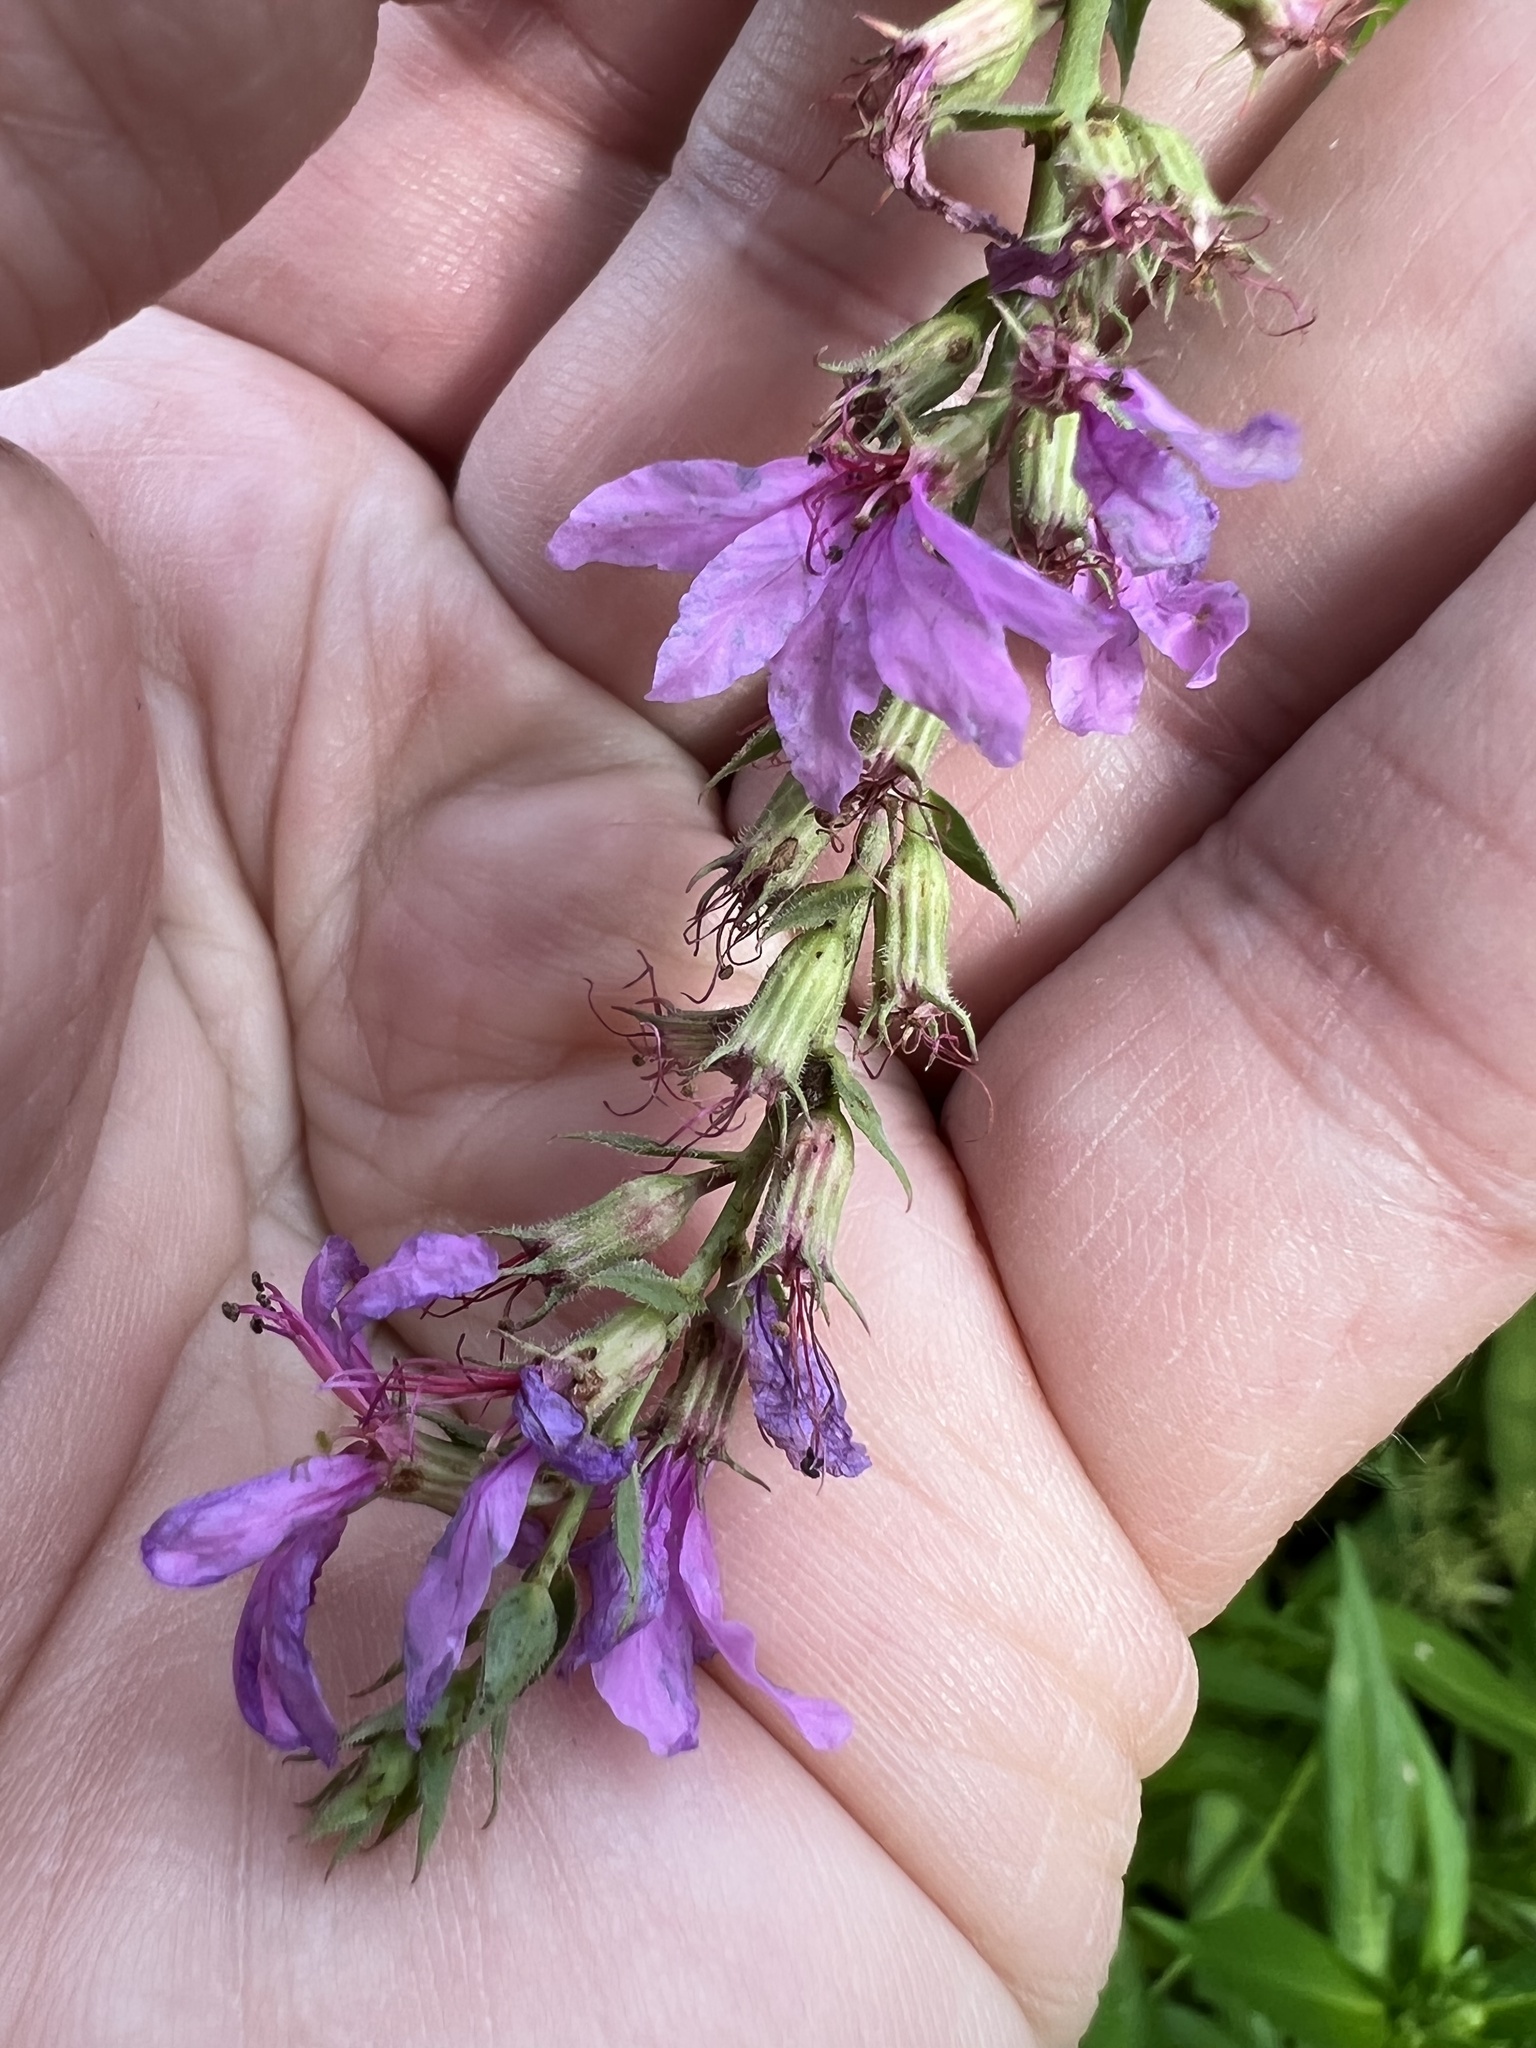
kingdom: Plantae
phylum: Tracheophyta
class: Magnoliopsida
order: Myrtales
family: Lythraceae
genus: Lythrum
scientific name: Lythrum salicaria
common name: Purple loosestrife
